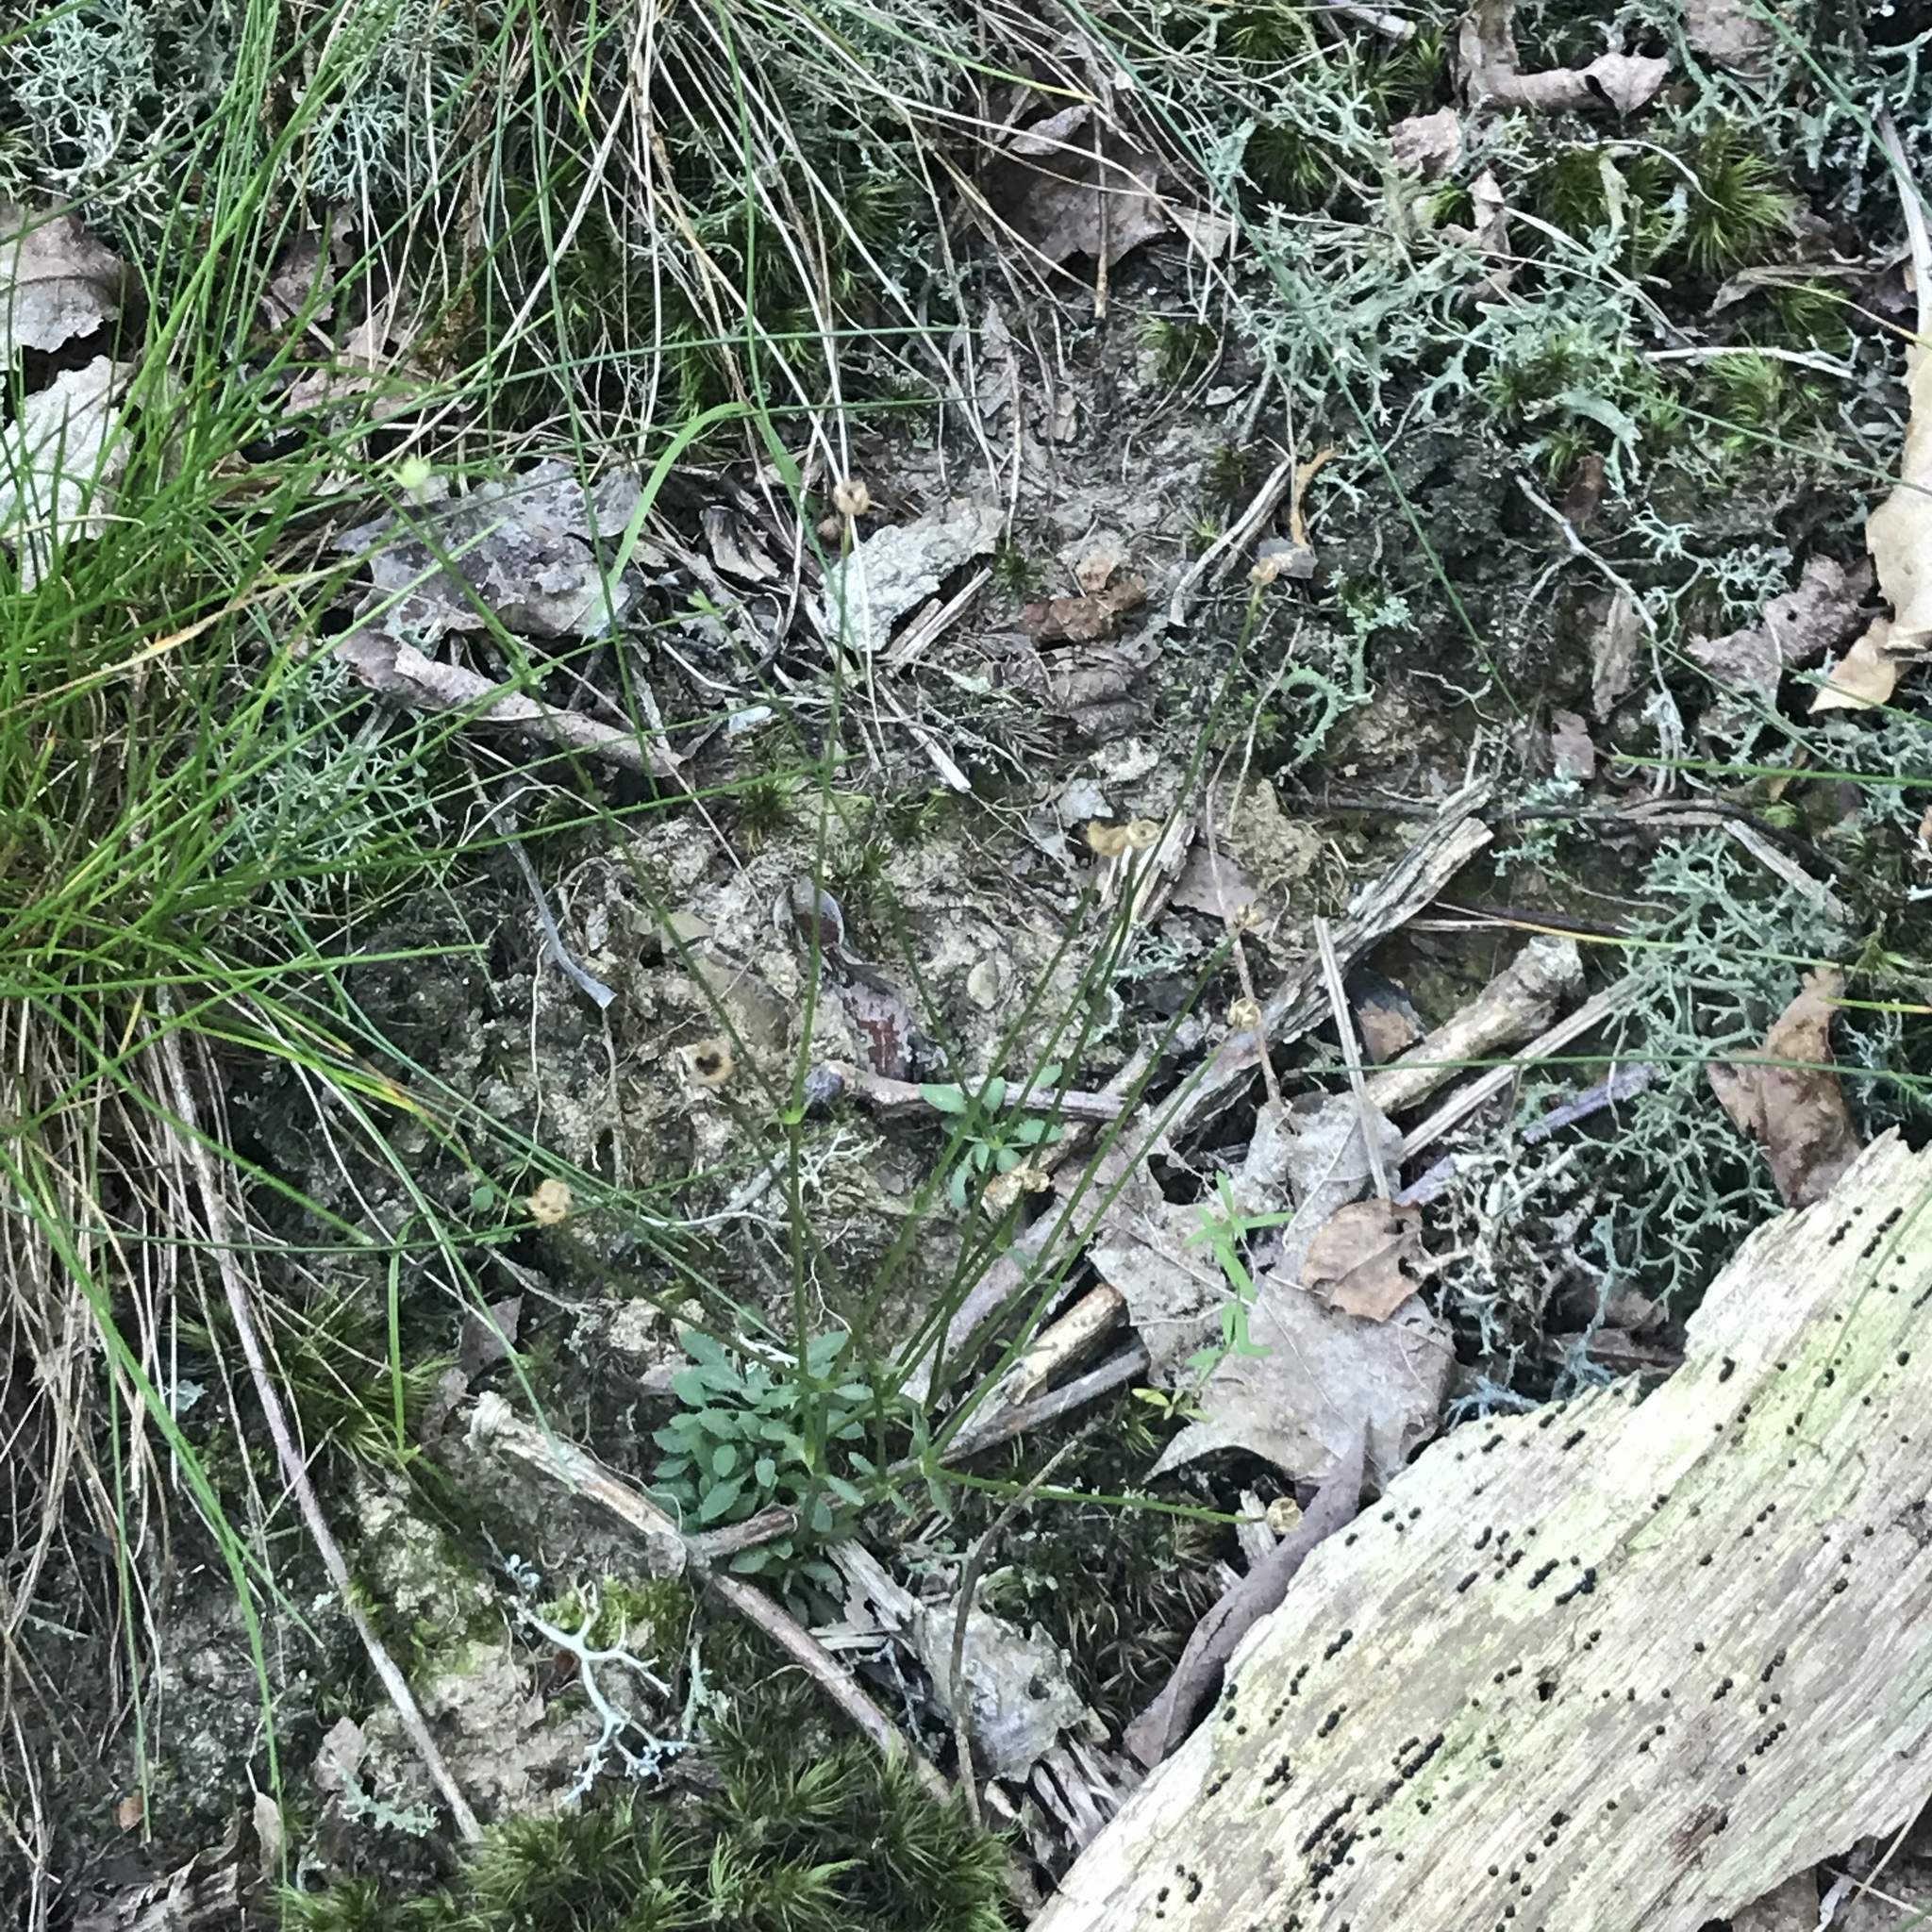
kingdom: Plantae
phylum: Tracheophyta
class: Magnoliopsida
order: Gentianales
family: Rubiaceae
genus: Houstonia
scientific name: Houstonia caerulea
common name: Bluets
